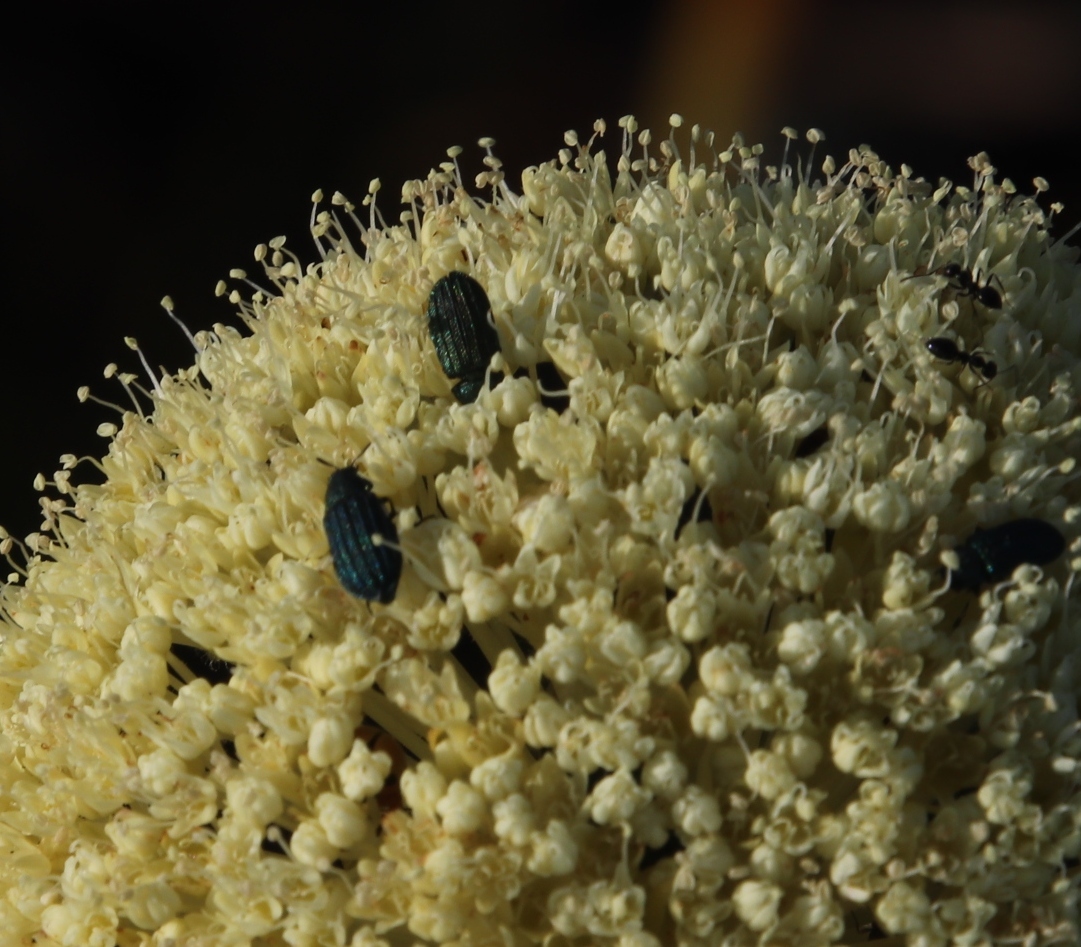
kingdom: Animalia
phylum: Arthropoda
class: Insecta
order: Hymenoptera
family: Formicidae
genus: Lepisiota
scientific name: Lepisiota capensis
